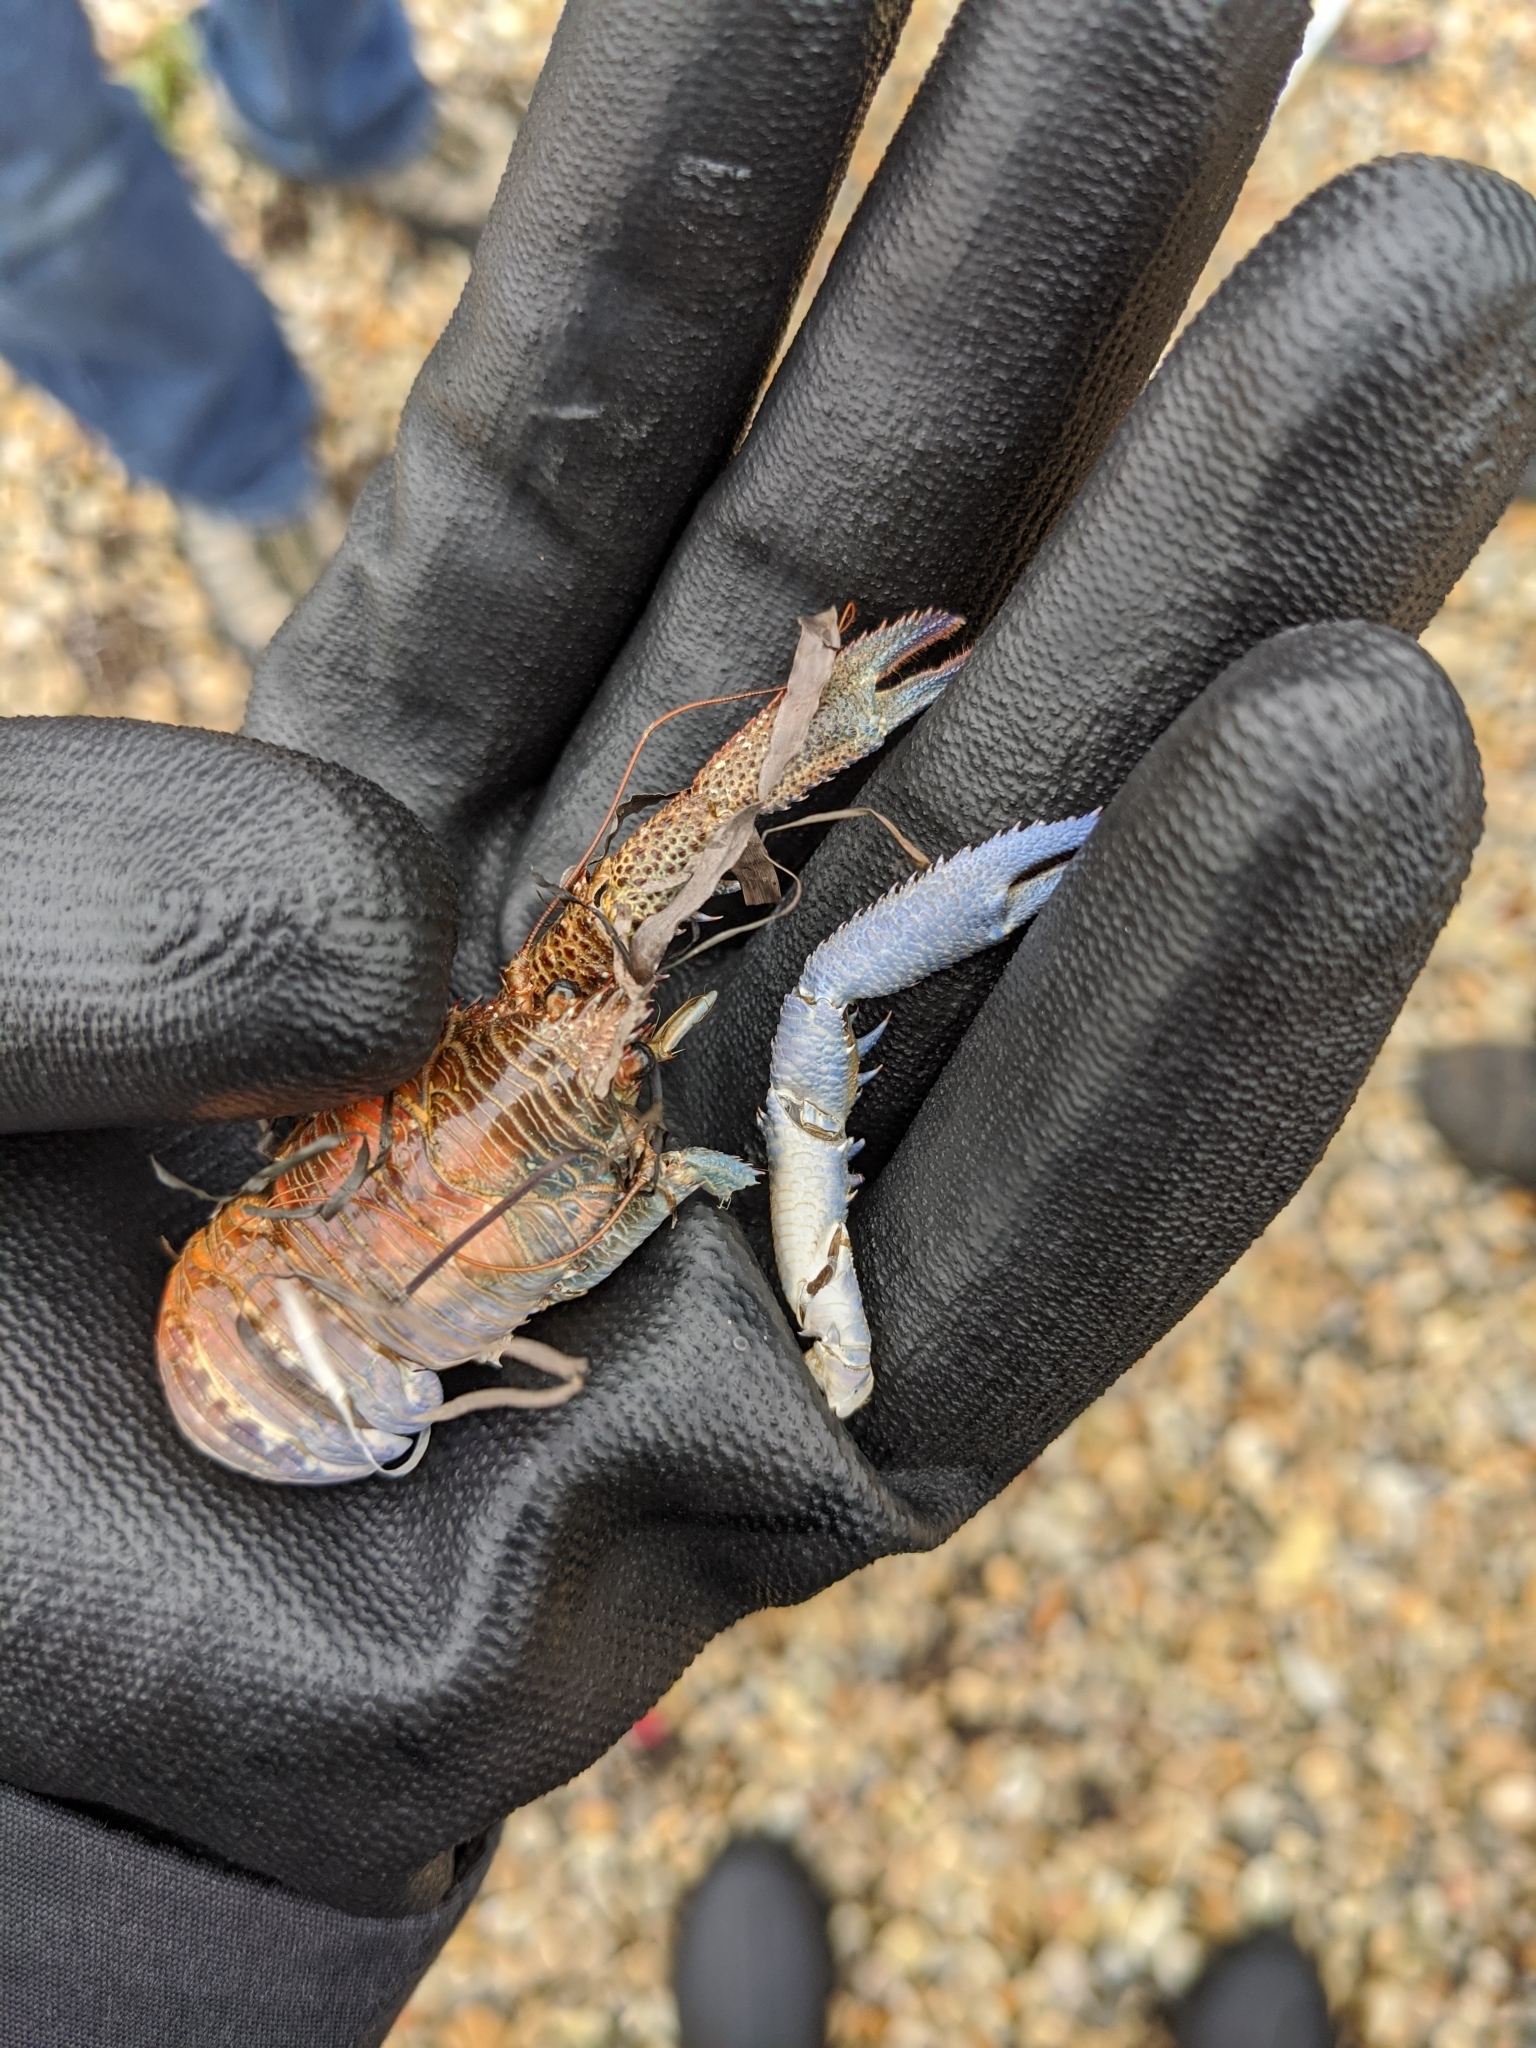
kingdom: Animalia
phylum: Arthropoda
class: Malacostraca
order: Decapoda
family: Galatheidae
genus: Galathea
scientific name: Galathea squamifera
